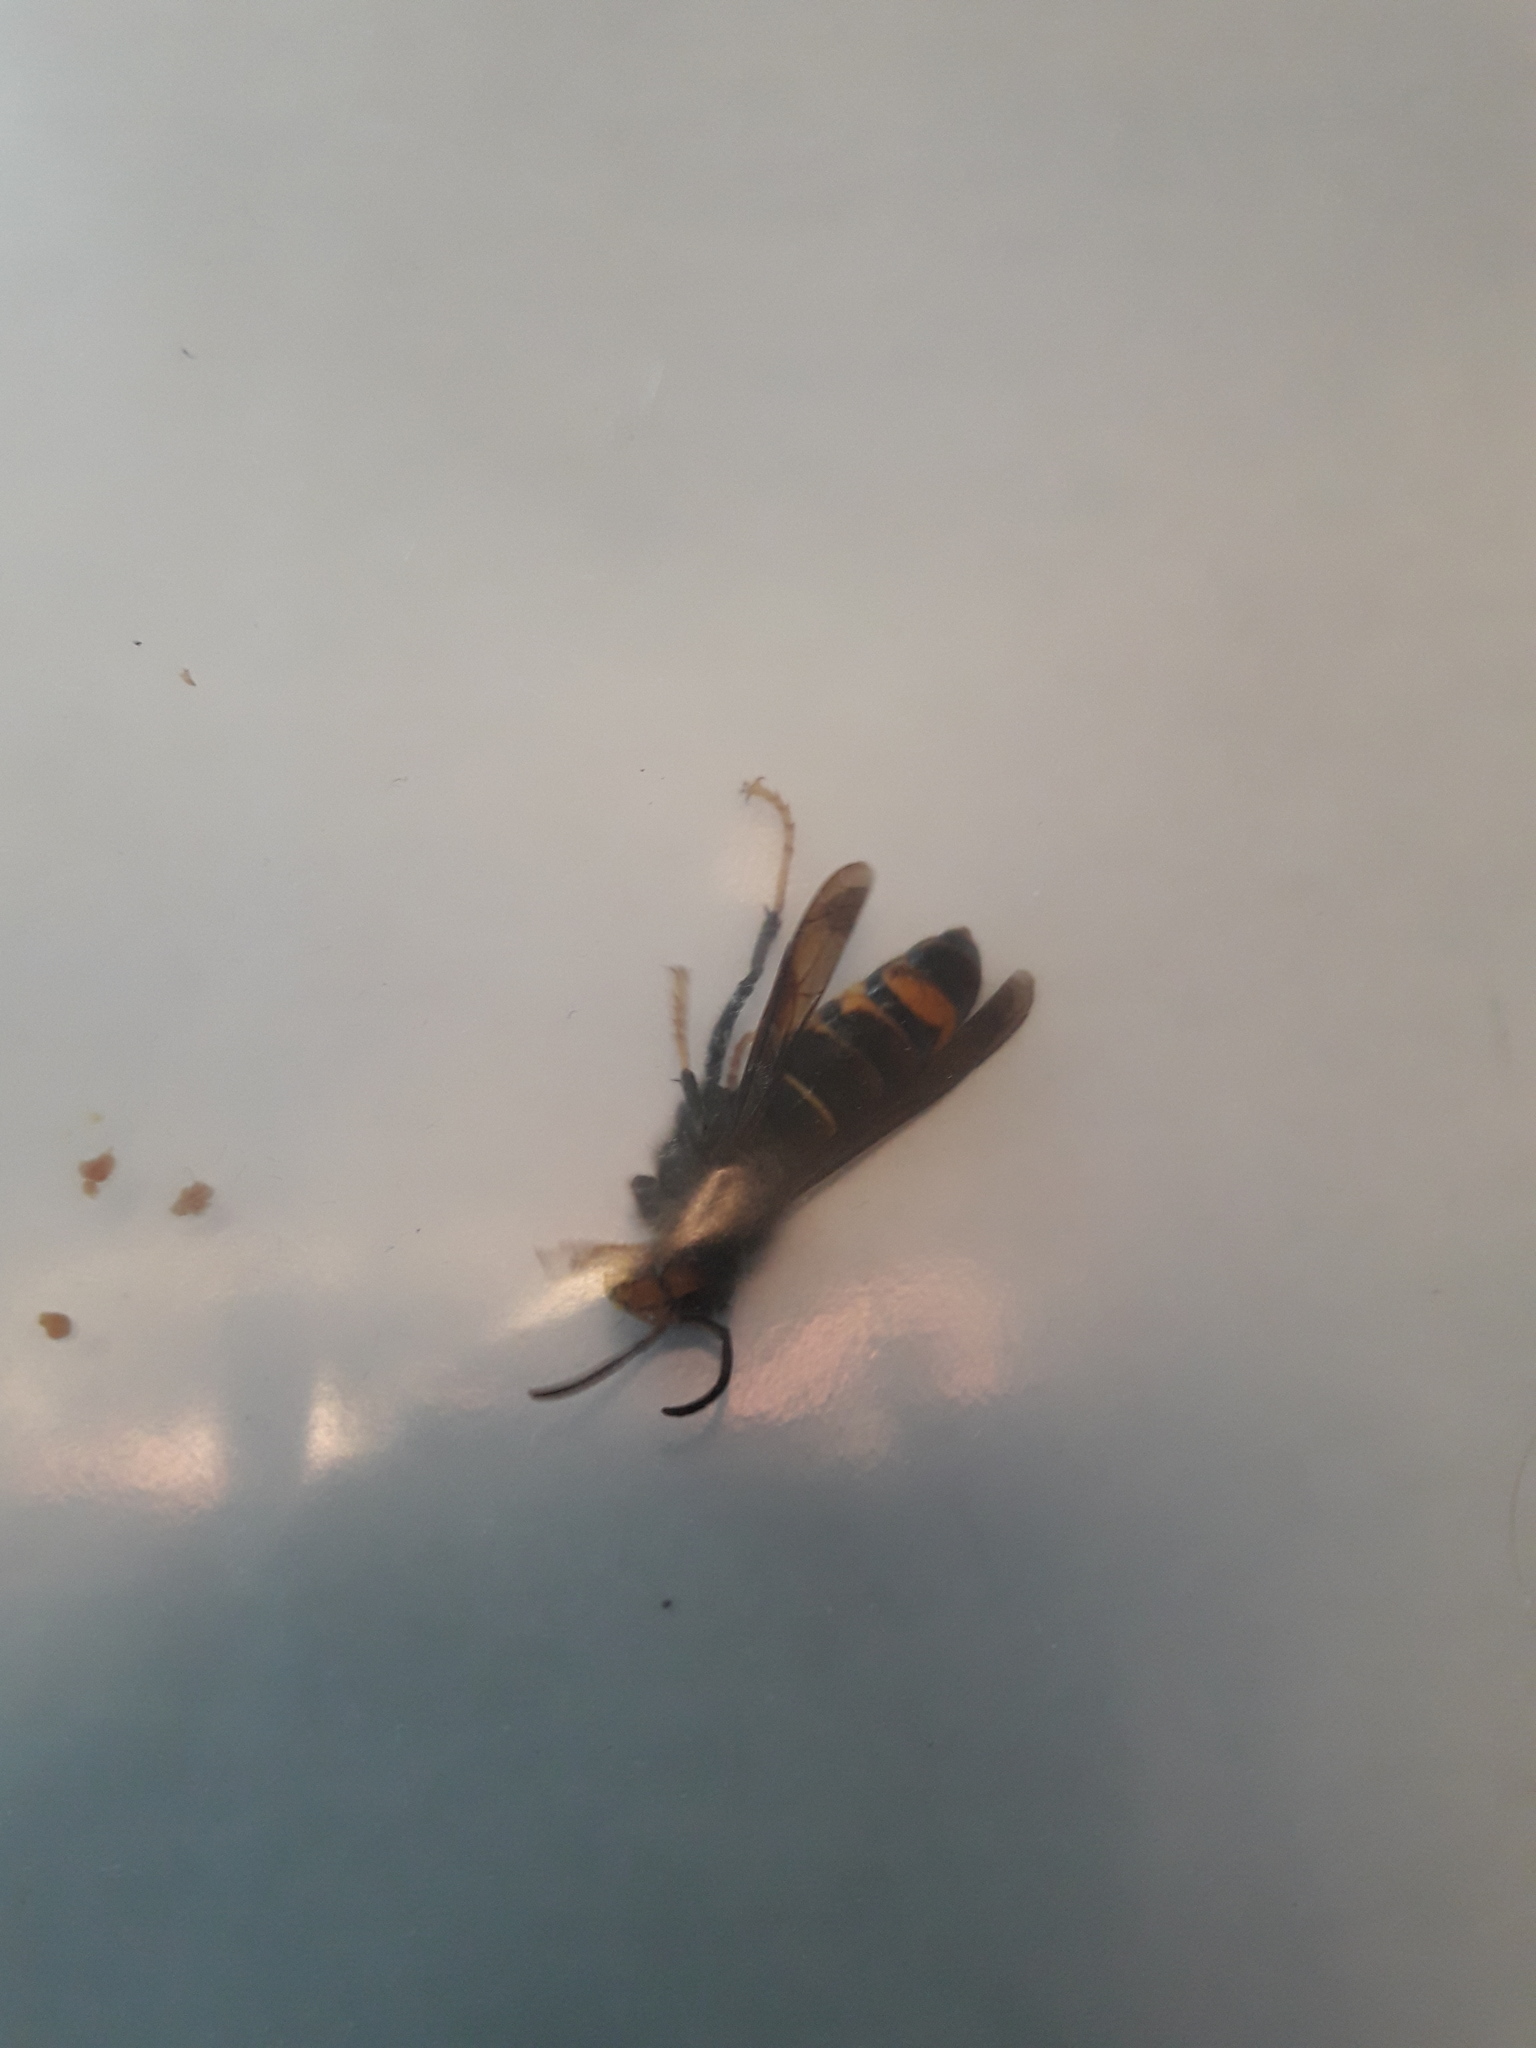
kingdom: Animalia
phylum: Arthropoda
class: Insecta
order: Hymenoptera
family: Vespidae
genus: Vespa
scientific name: Vespa velutina
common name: Asian hornet
